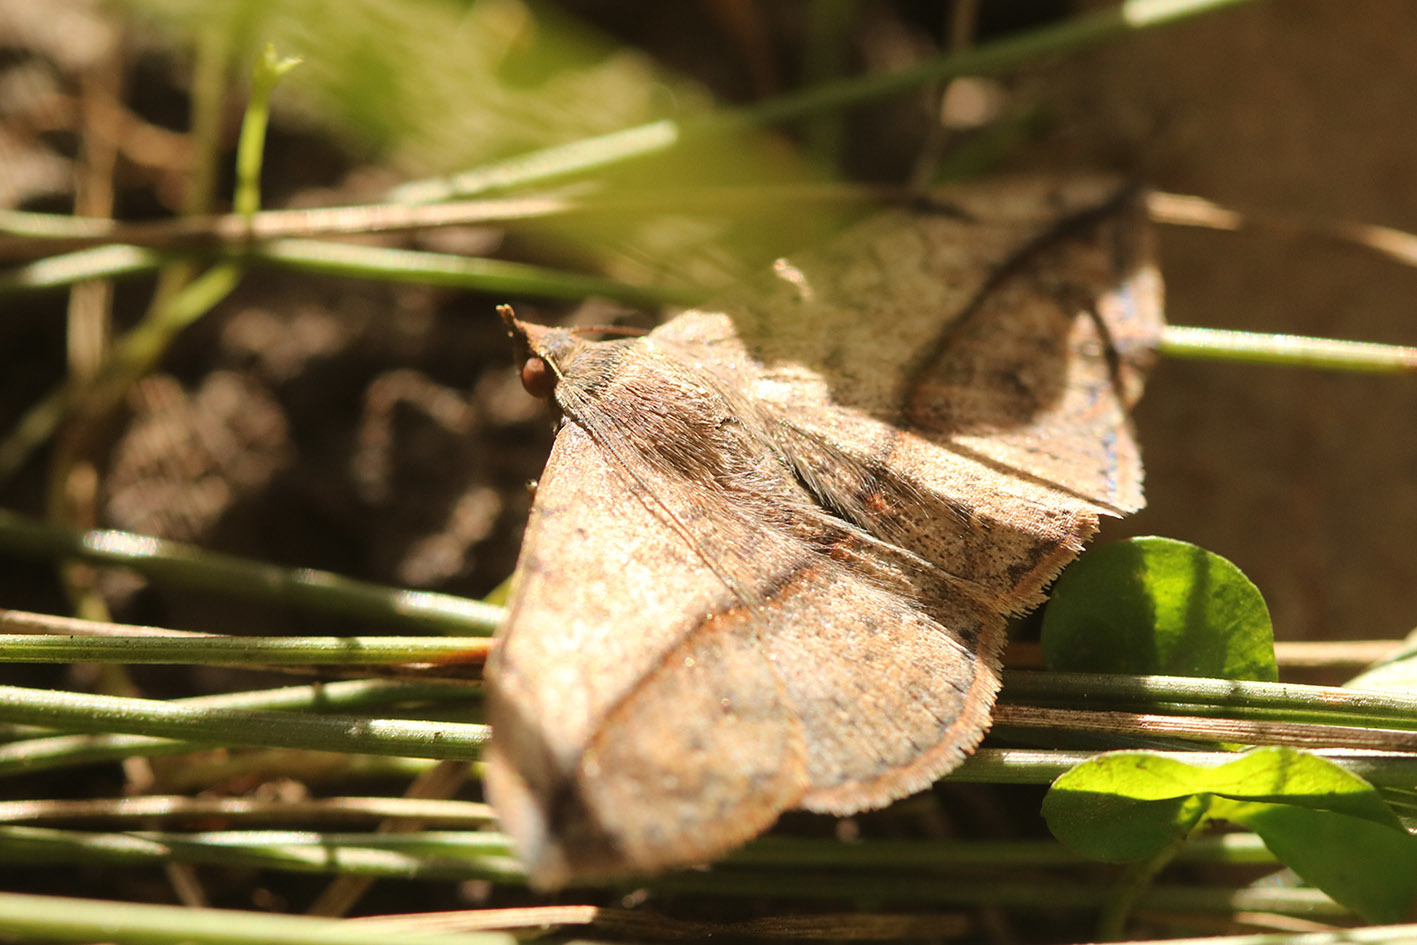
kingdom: Animalia
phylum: Arthropoda
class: Insecta
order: Lepidoptera
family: Erebidae
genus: Anticarsia
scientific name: Anticarsia gemmatalis
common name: Cutworm moth
